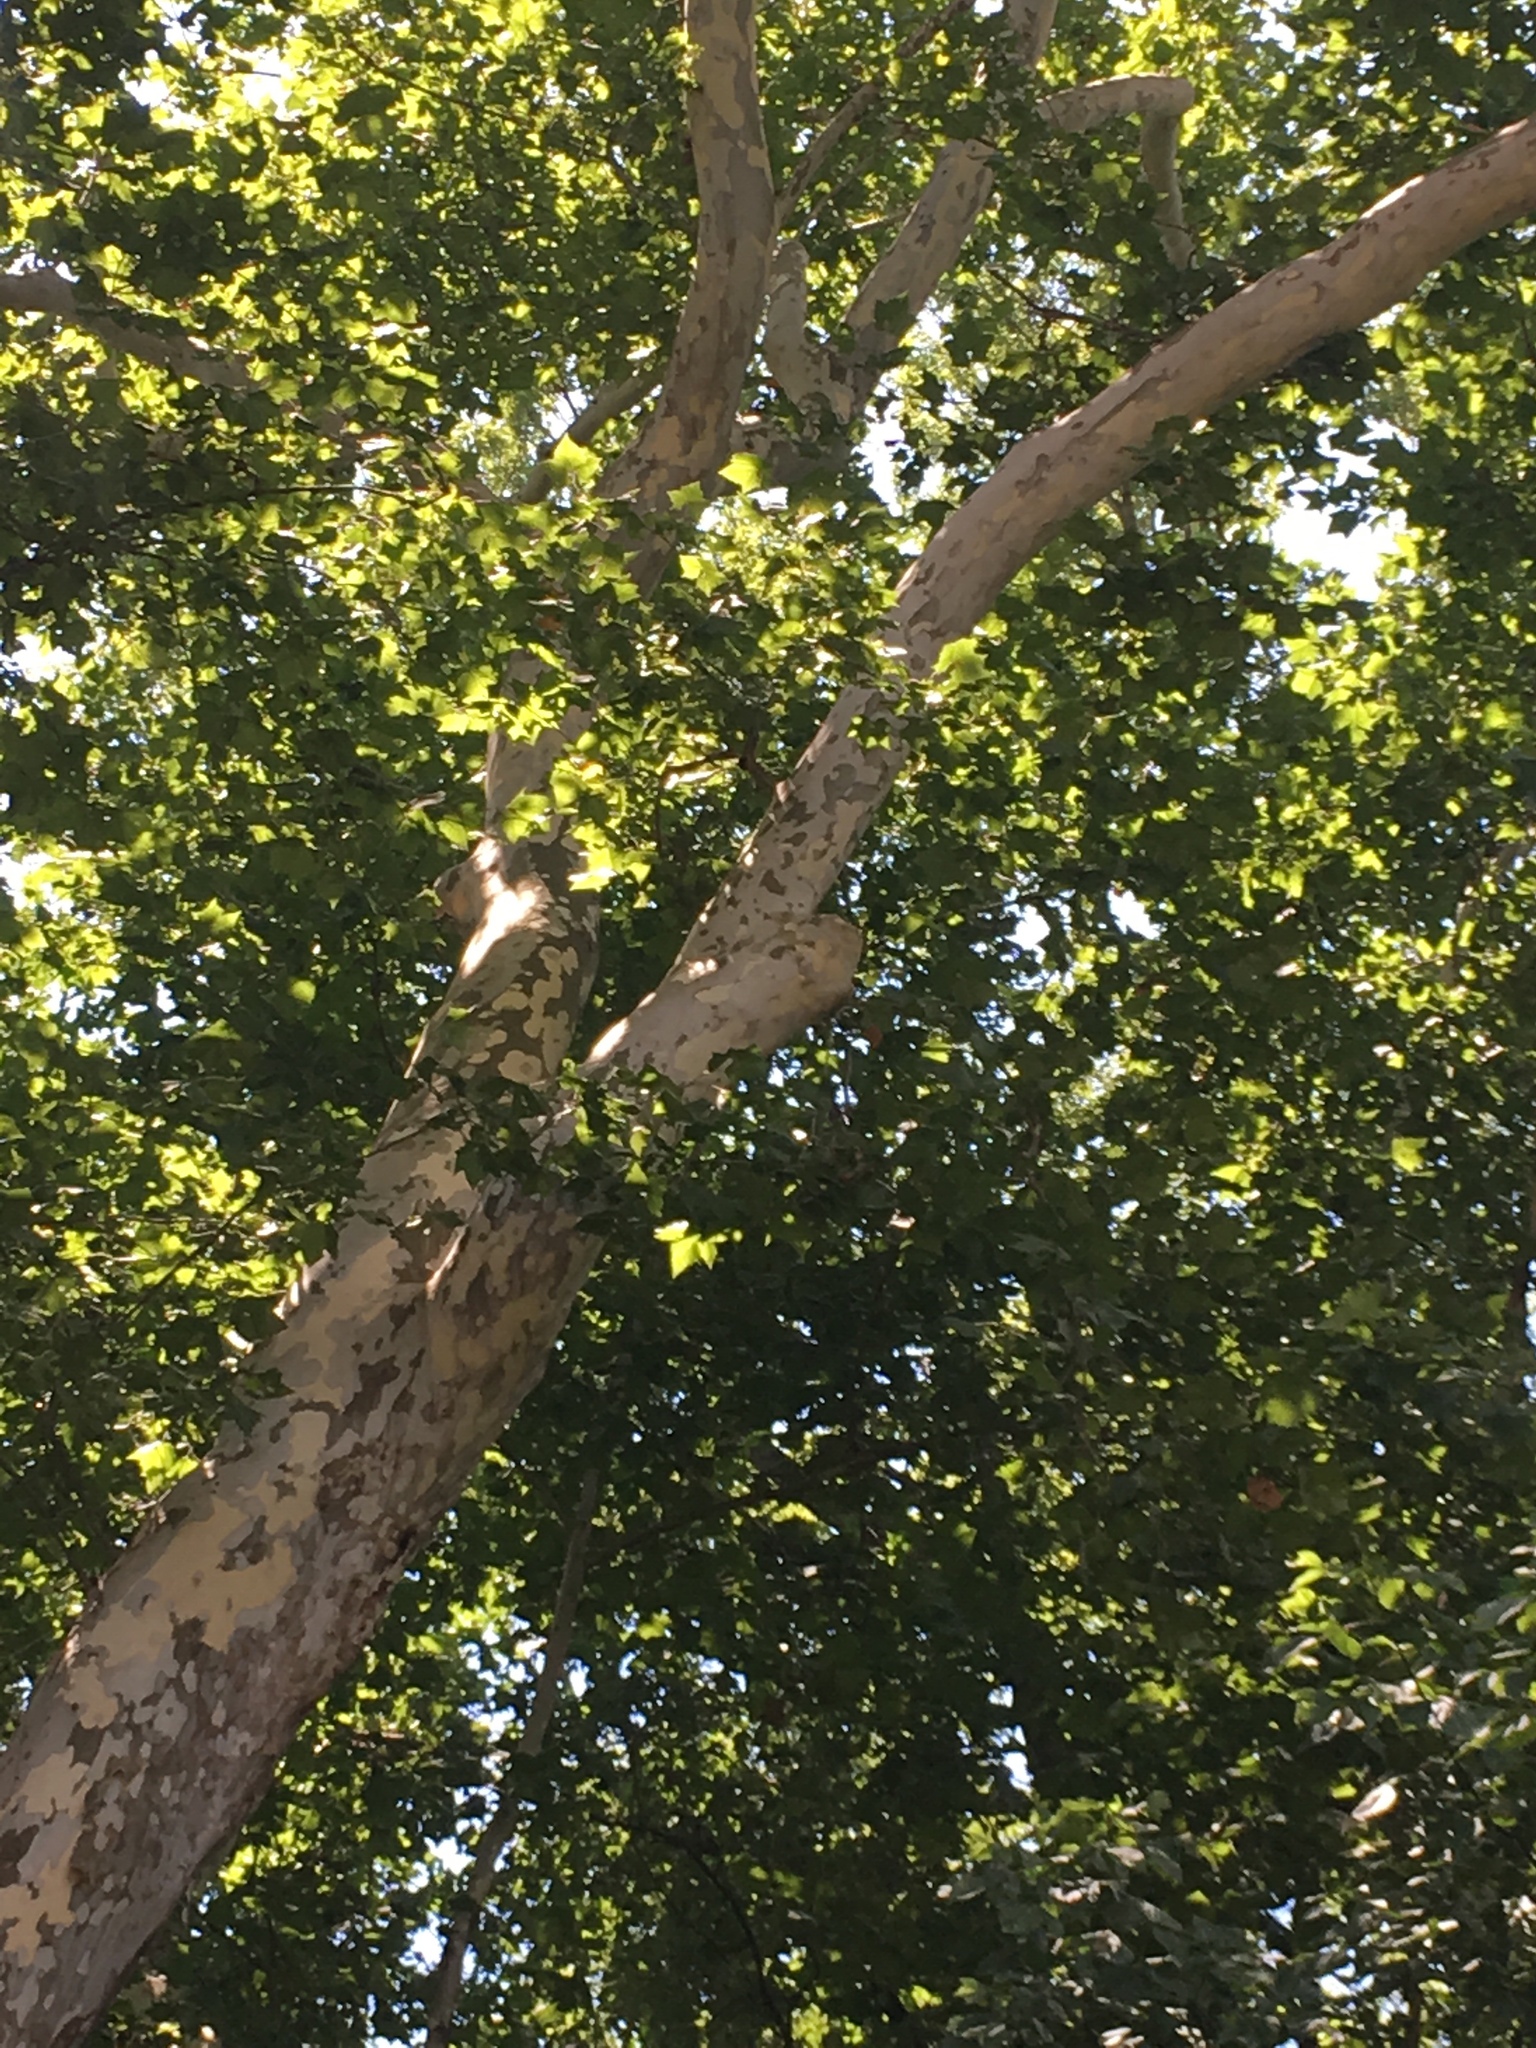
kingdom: Plantae
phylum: Tracheophyta
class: Magnoliopsida
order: Proteales
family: Platanaceae
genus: Platanus
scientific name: Platanus occidentalis
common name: American sycamore
